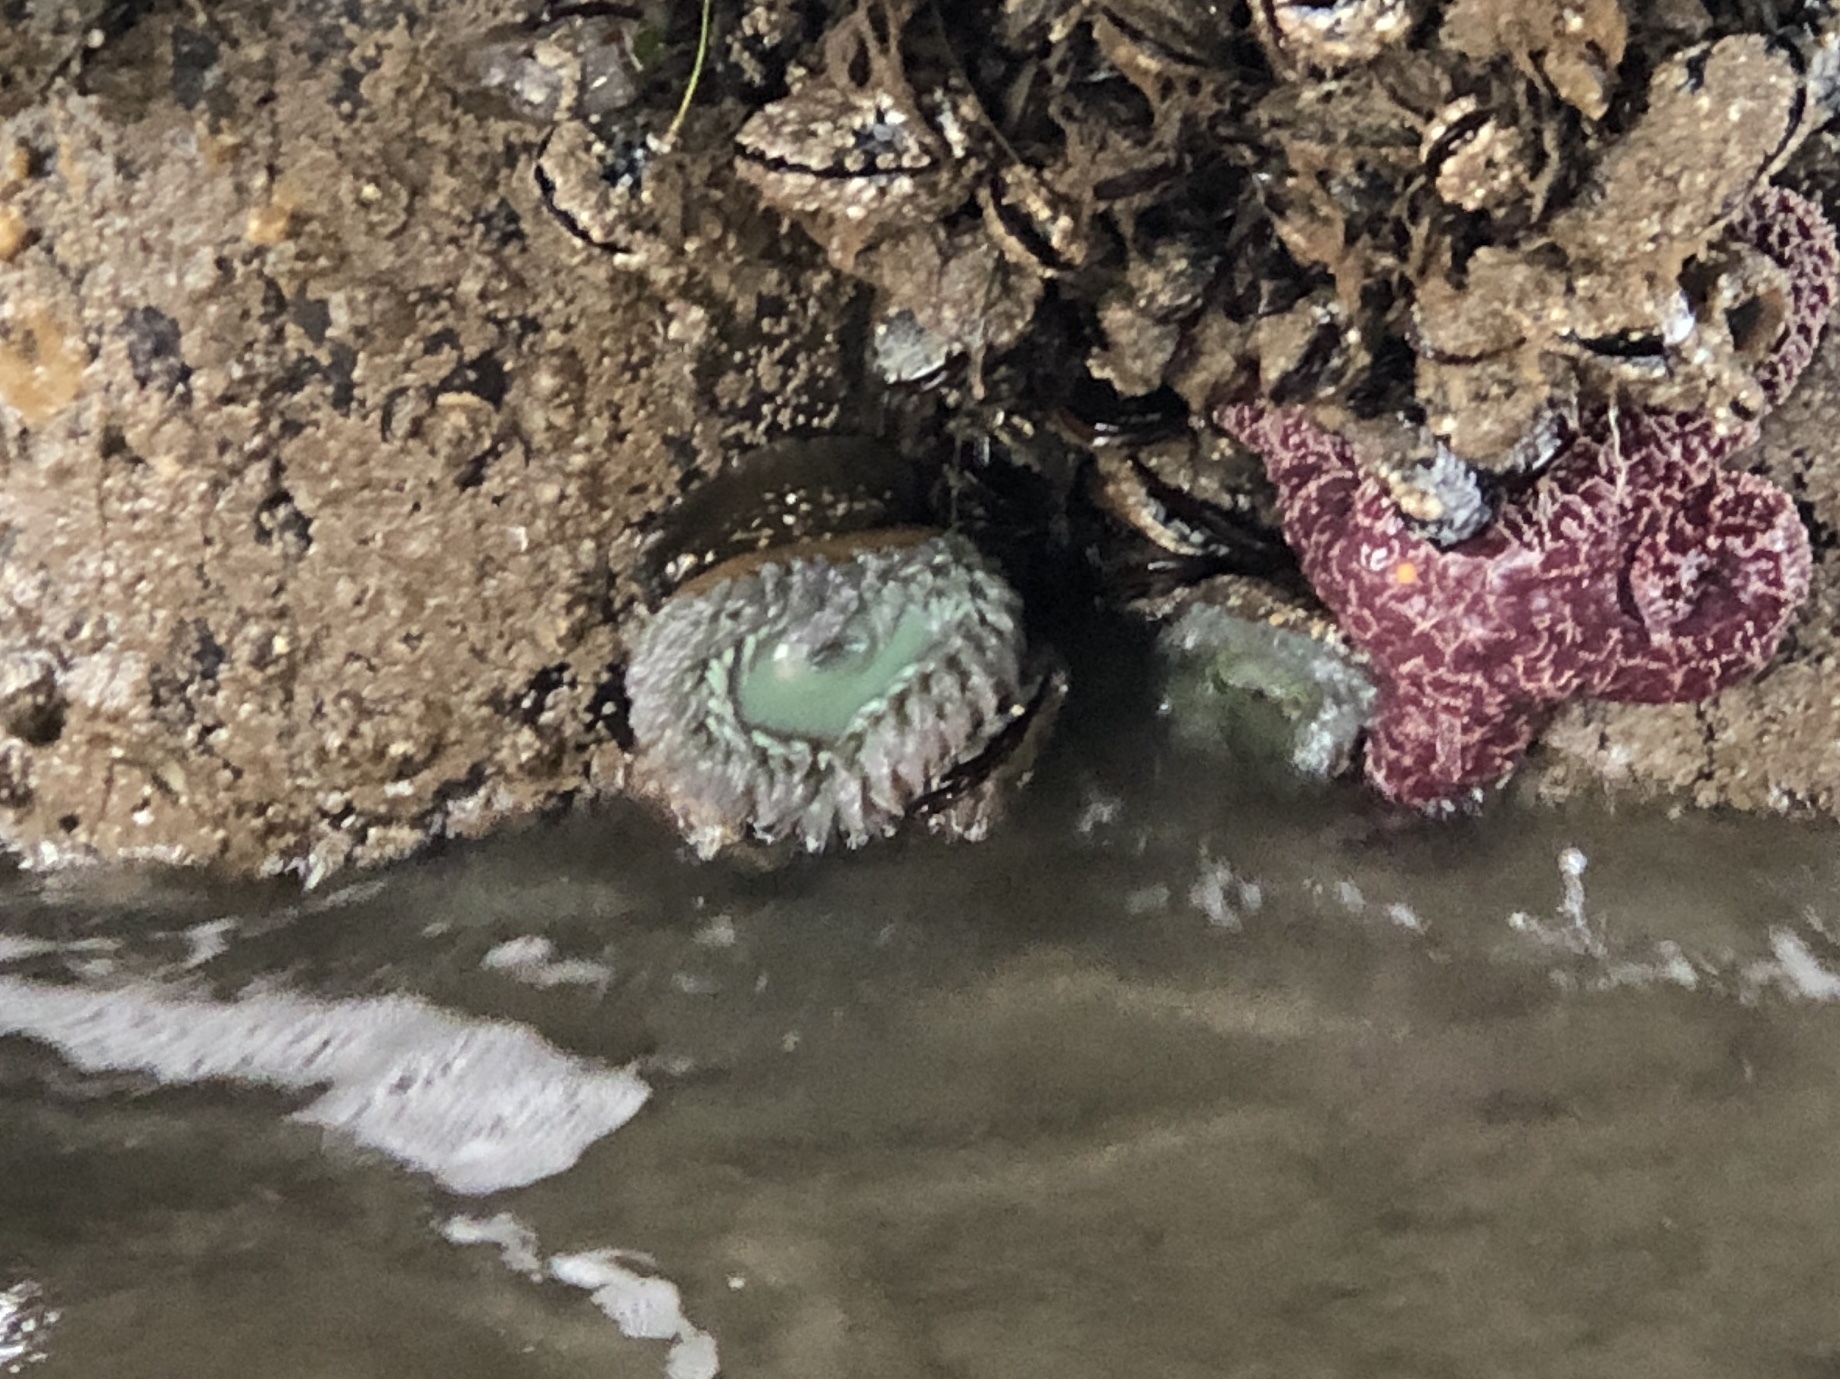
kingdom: Animalia
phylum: Cnidaria
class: Anthozoa
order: Actiniaria
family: Actiniidae
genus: Anthopleura
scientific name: Anthopleura xanthogrammica
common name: Giant green anemone
